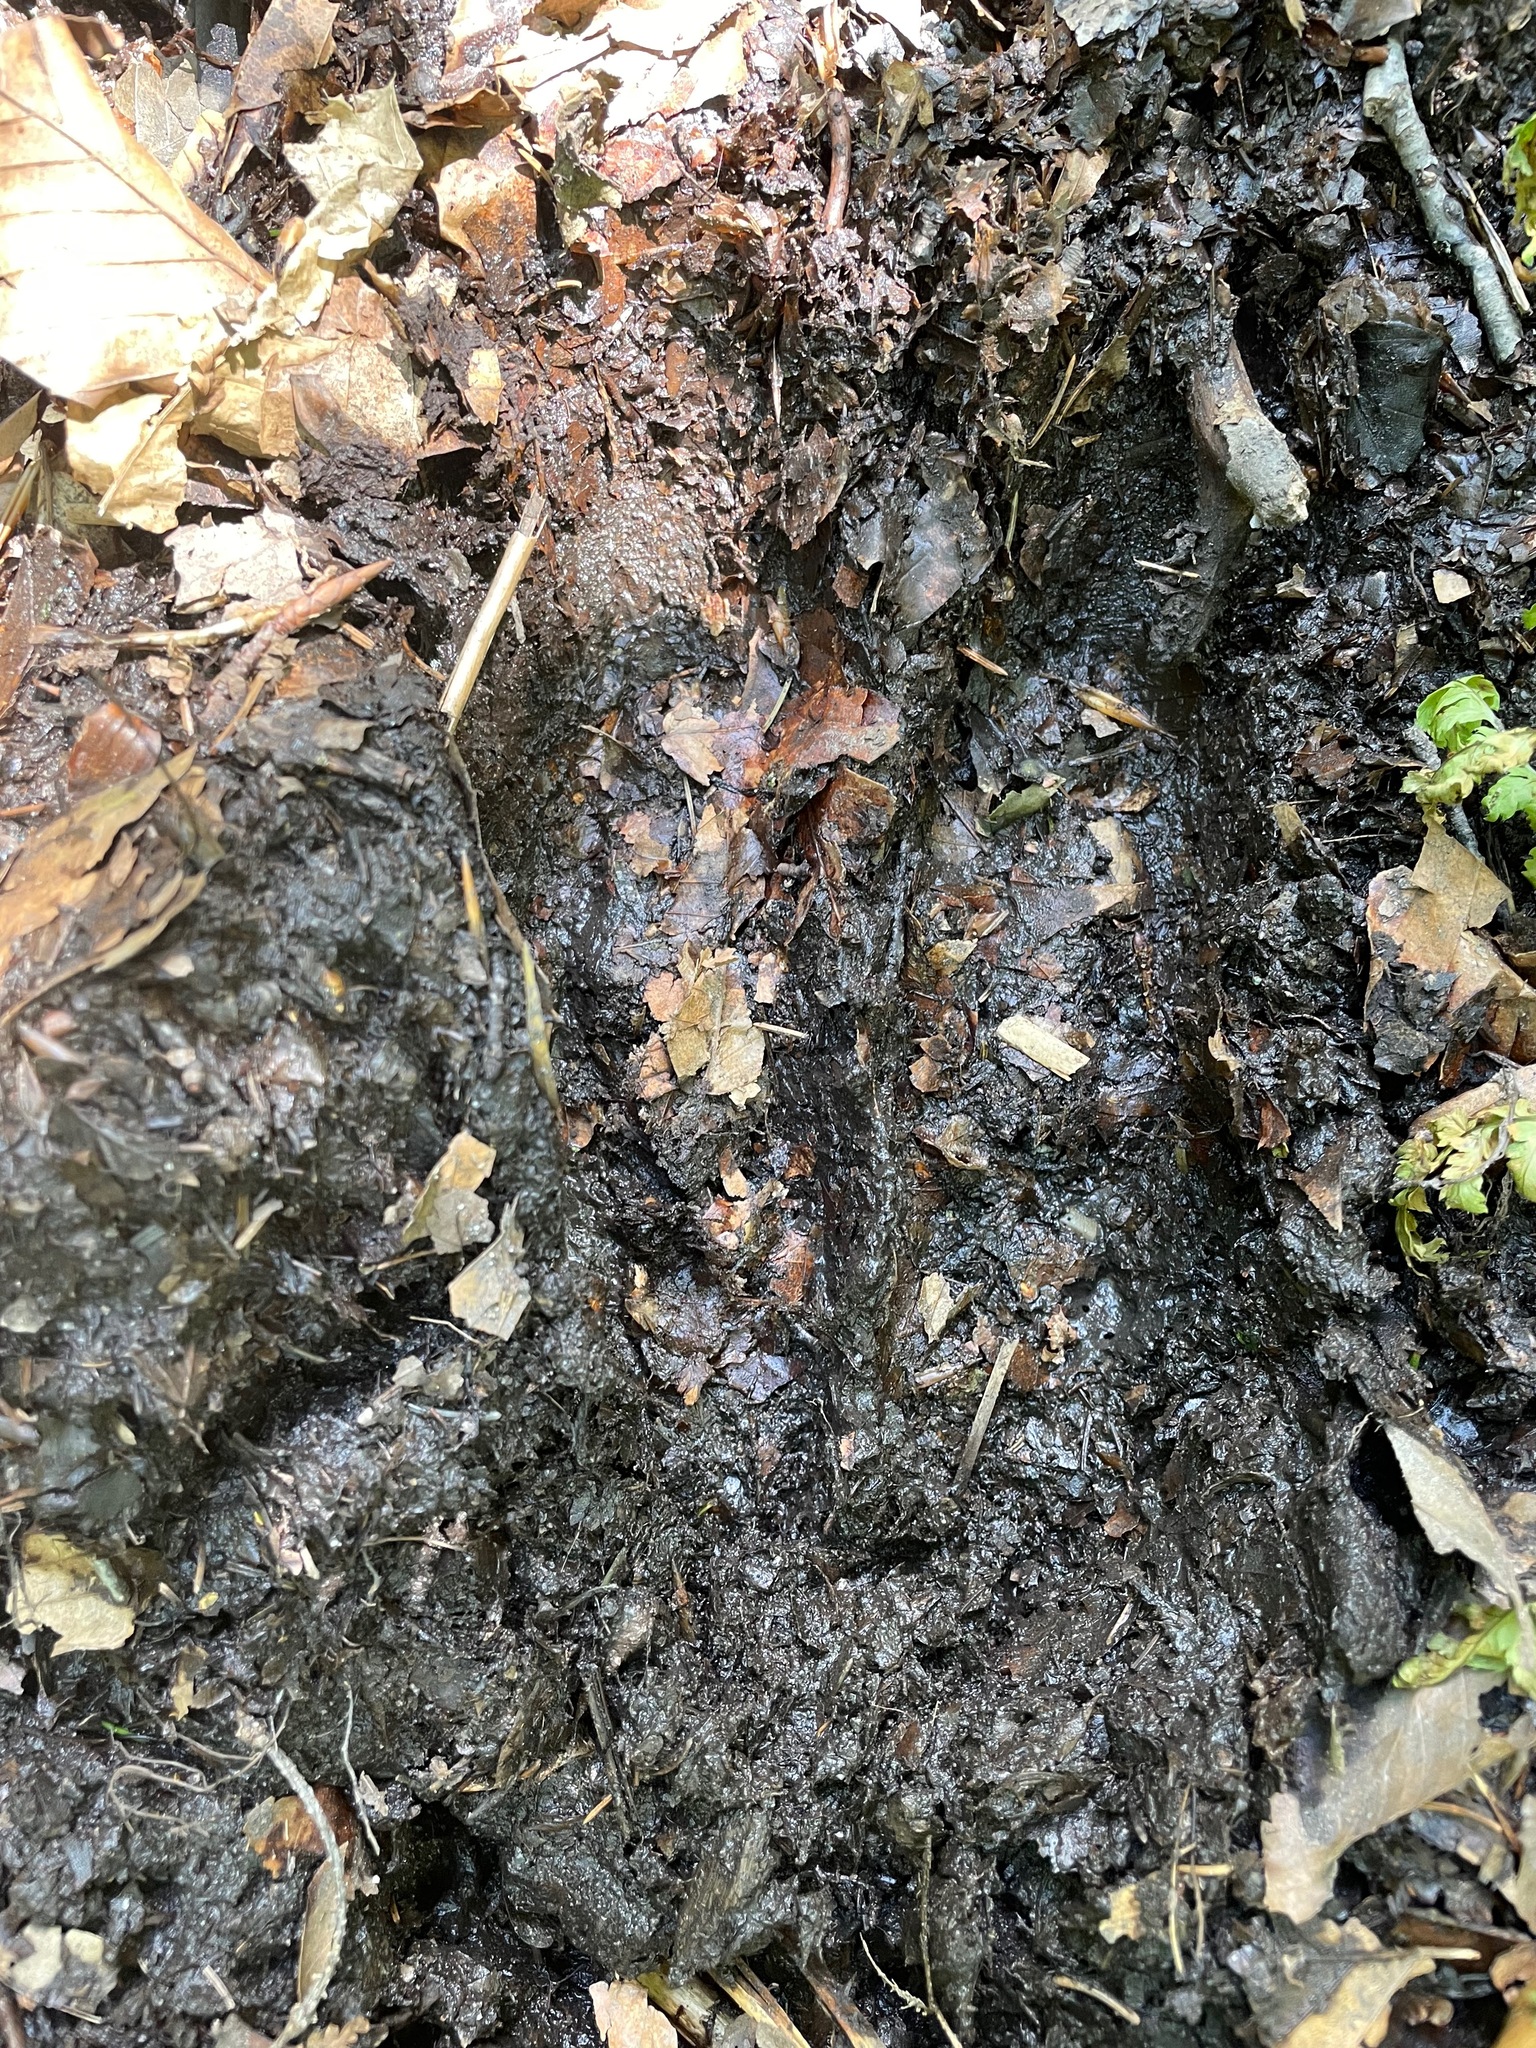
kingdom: Animalia
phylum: Chordata
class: Mammalia
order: Artiodactyla
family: Cervidae
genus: Alces
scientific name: Alces alces
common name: Moose
